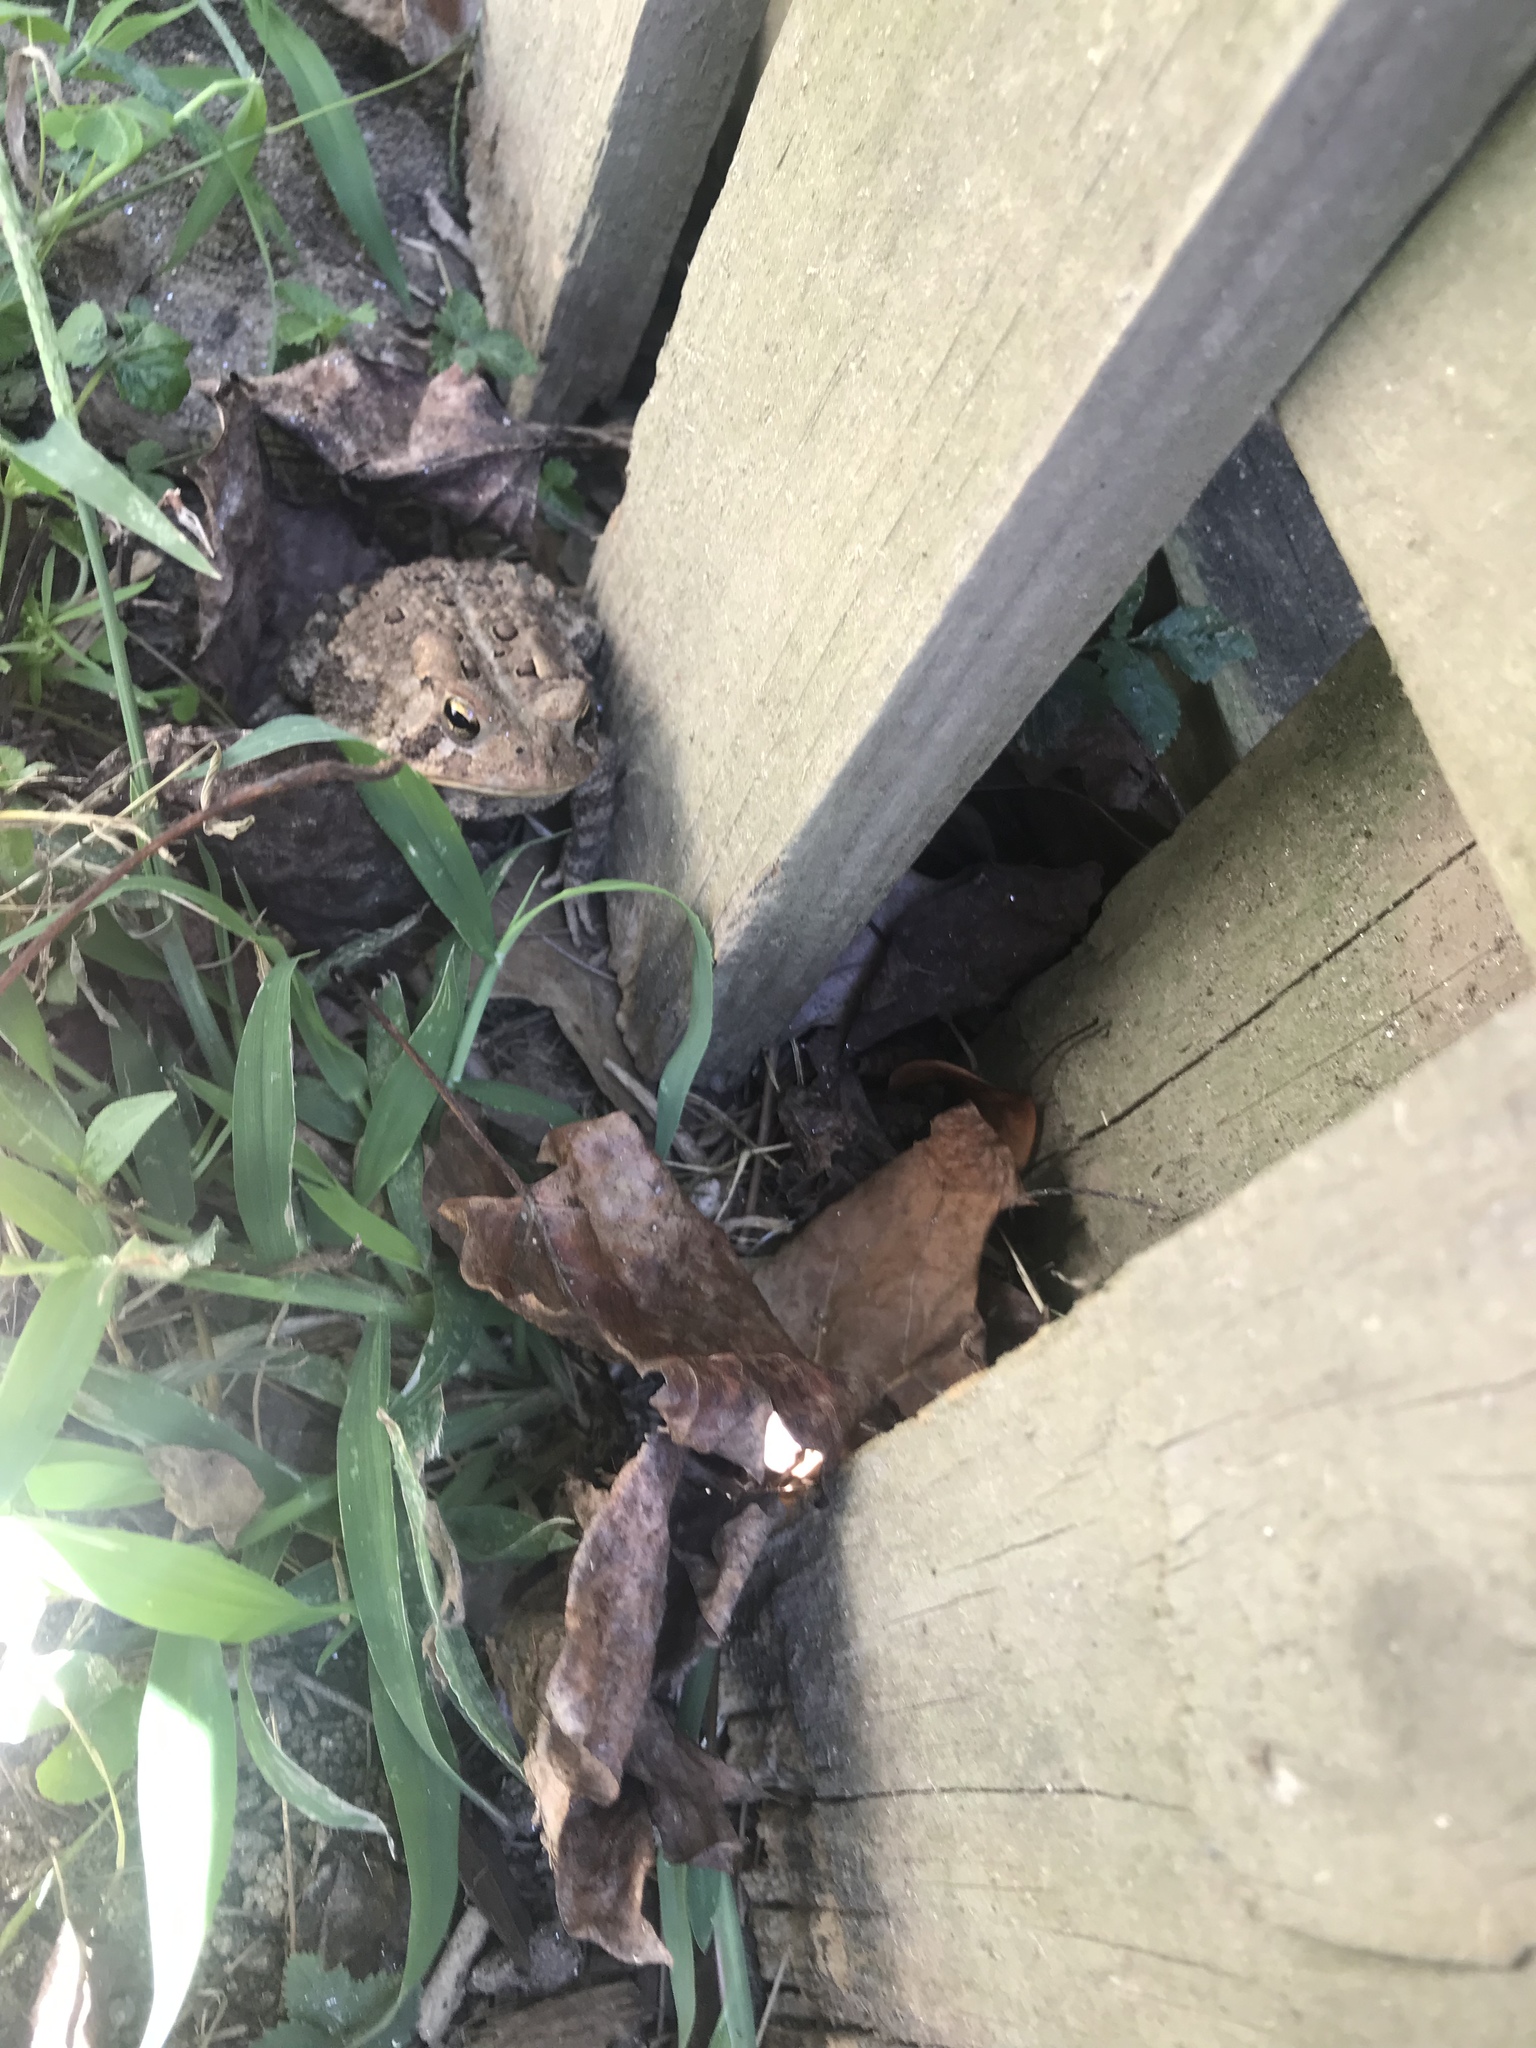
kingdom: Animalia
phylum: Chordata
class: Amphibia
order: Anura
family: Bufonidae
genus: Anaxyrus
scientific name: Anaxyrus americanus
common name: American toad
